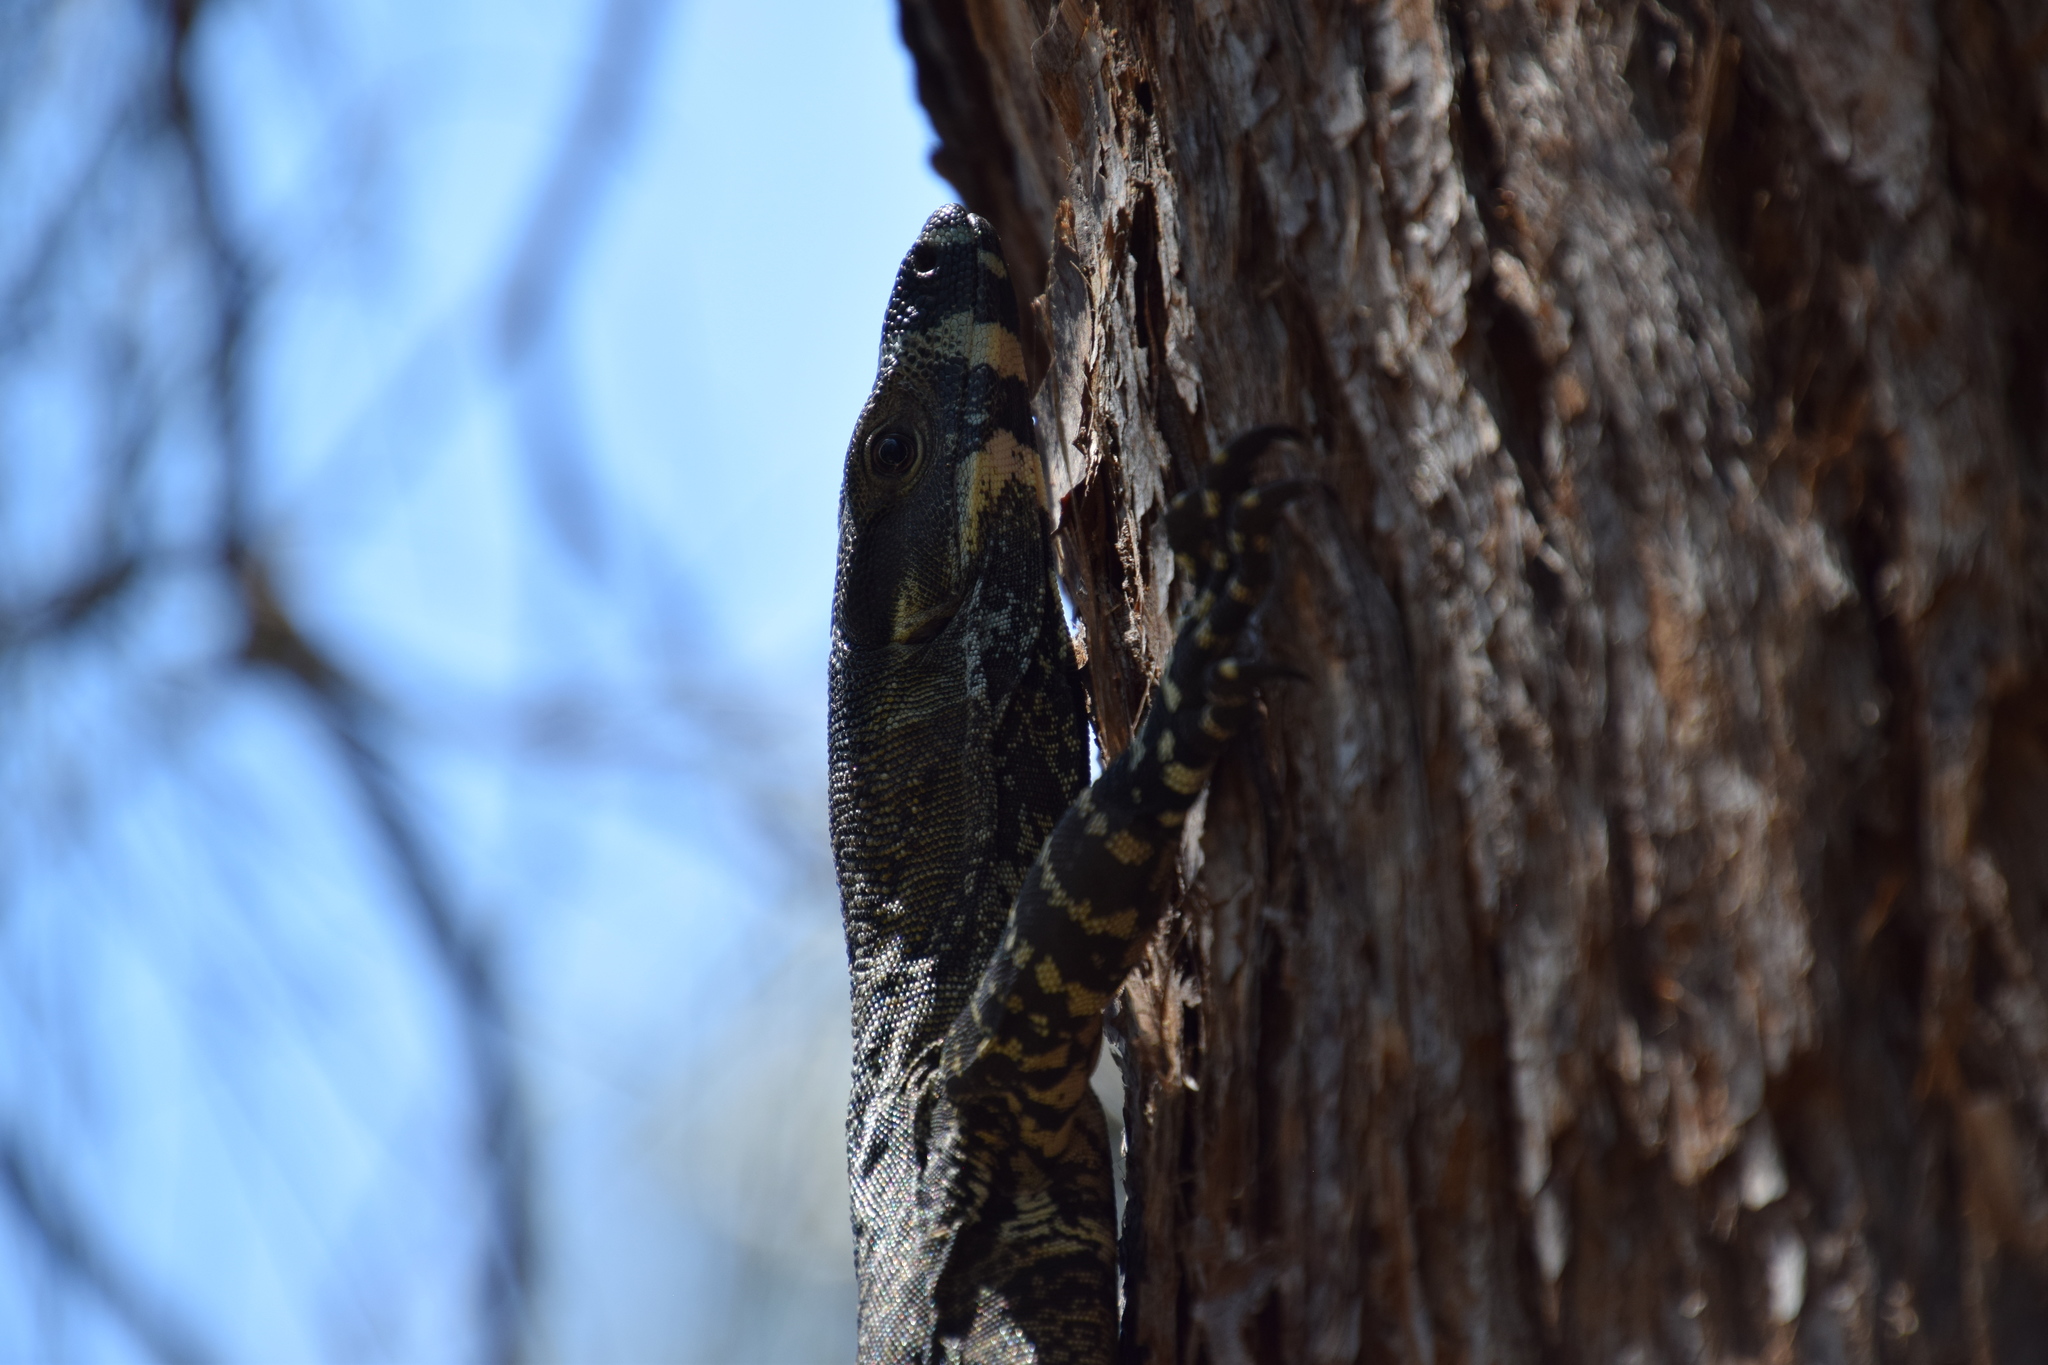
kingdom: Animalia
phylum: Chordata
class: Squamata
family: Varanidae
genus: Varanus
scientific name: Varanus varius
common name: Lace monitor
